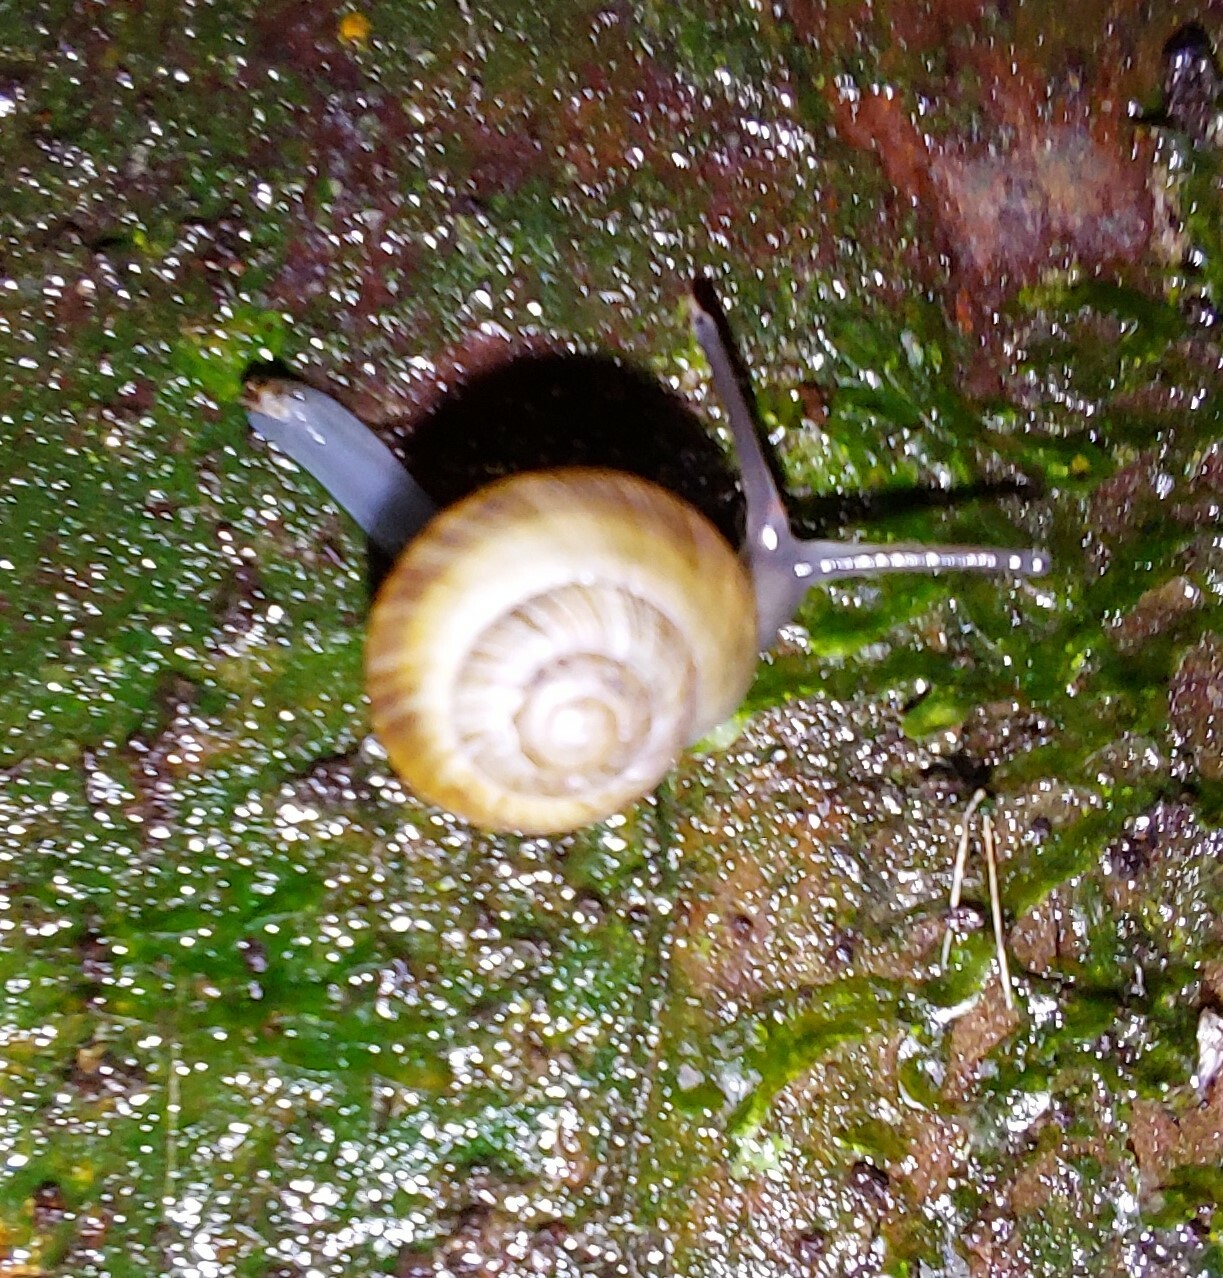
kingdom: Animalia
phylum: Mollusca
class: Gastropoda
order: Stylommatophora
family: Charopidae
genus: Serpho
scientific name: Serpho
